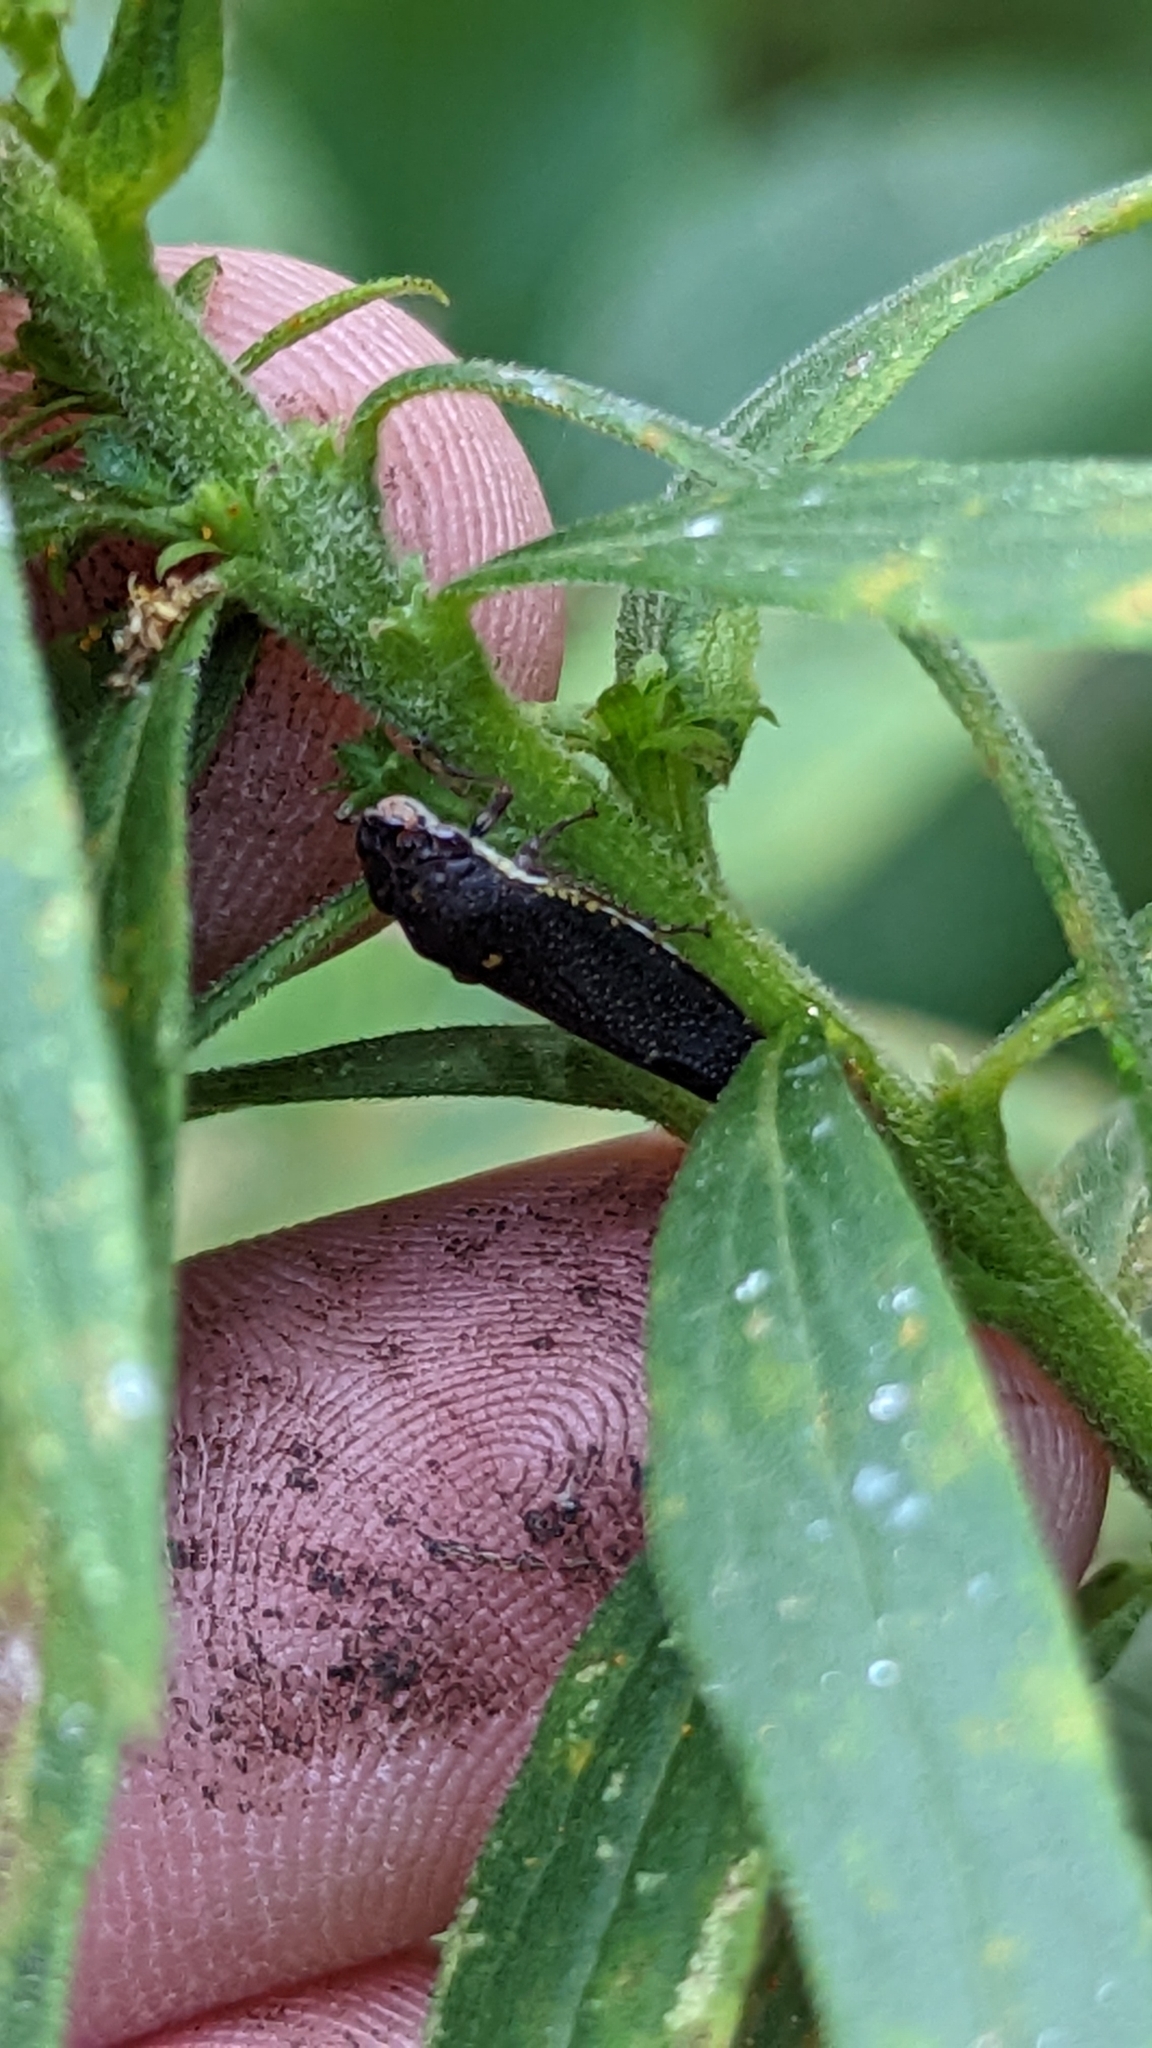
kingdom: Animalia
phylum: Arthropoda
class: Insecta
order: Hemiptera
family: Cicadellidae
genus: Paraulacizes
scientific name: Paraulacizes irrorata
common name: Speckled sharpshooter
